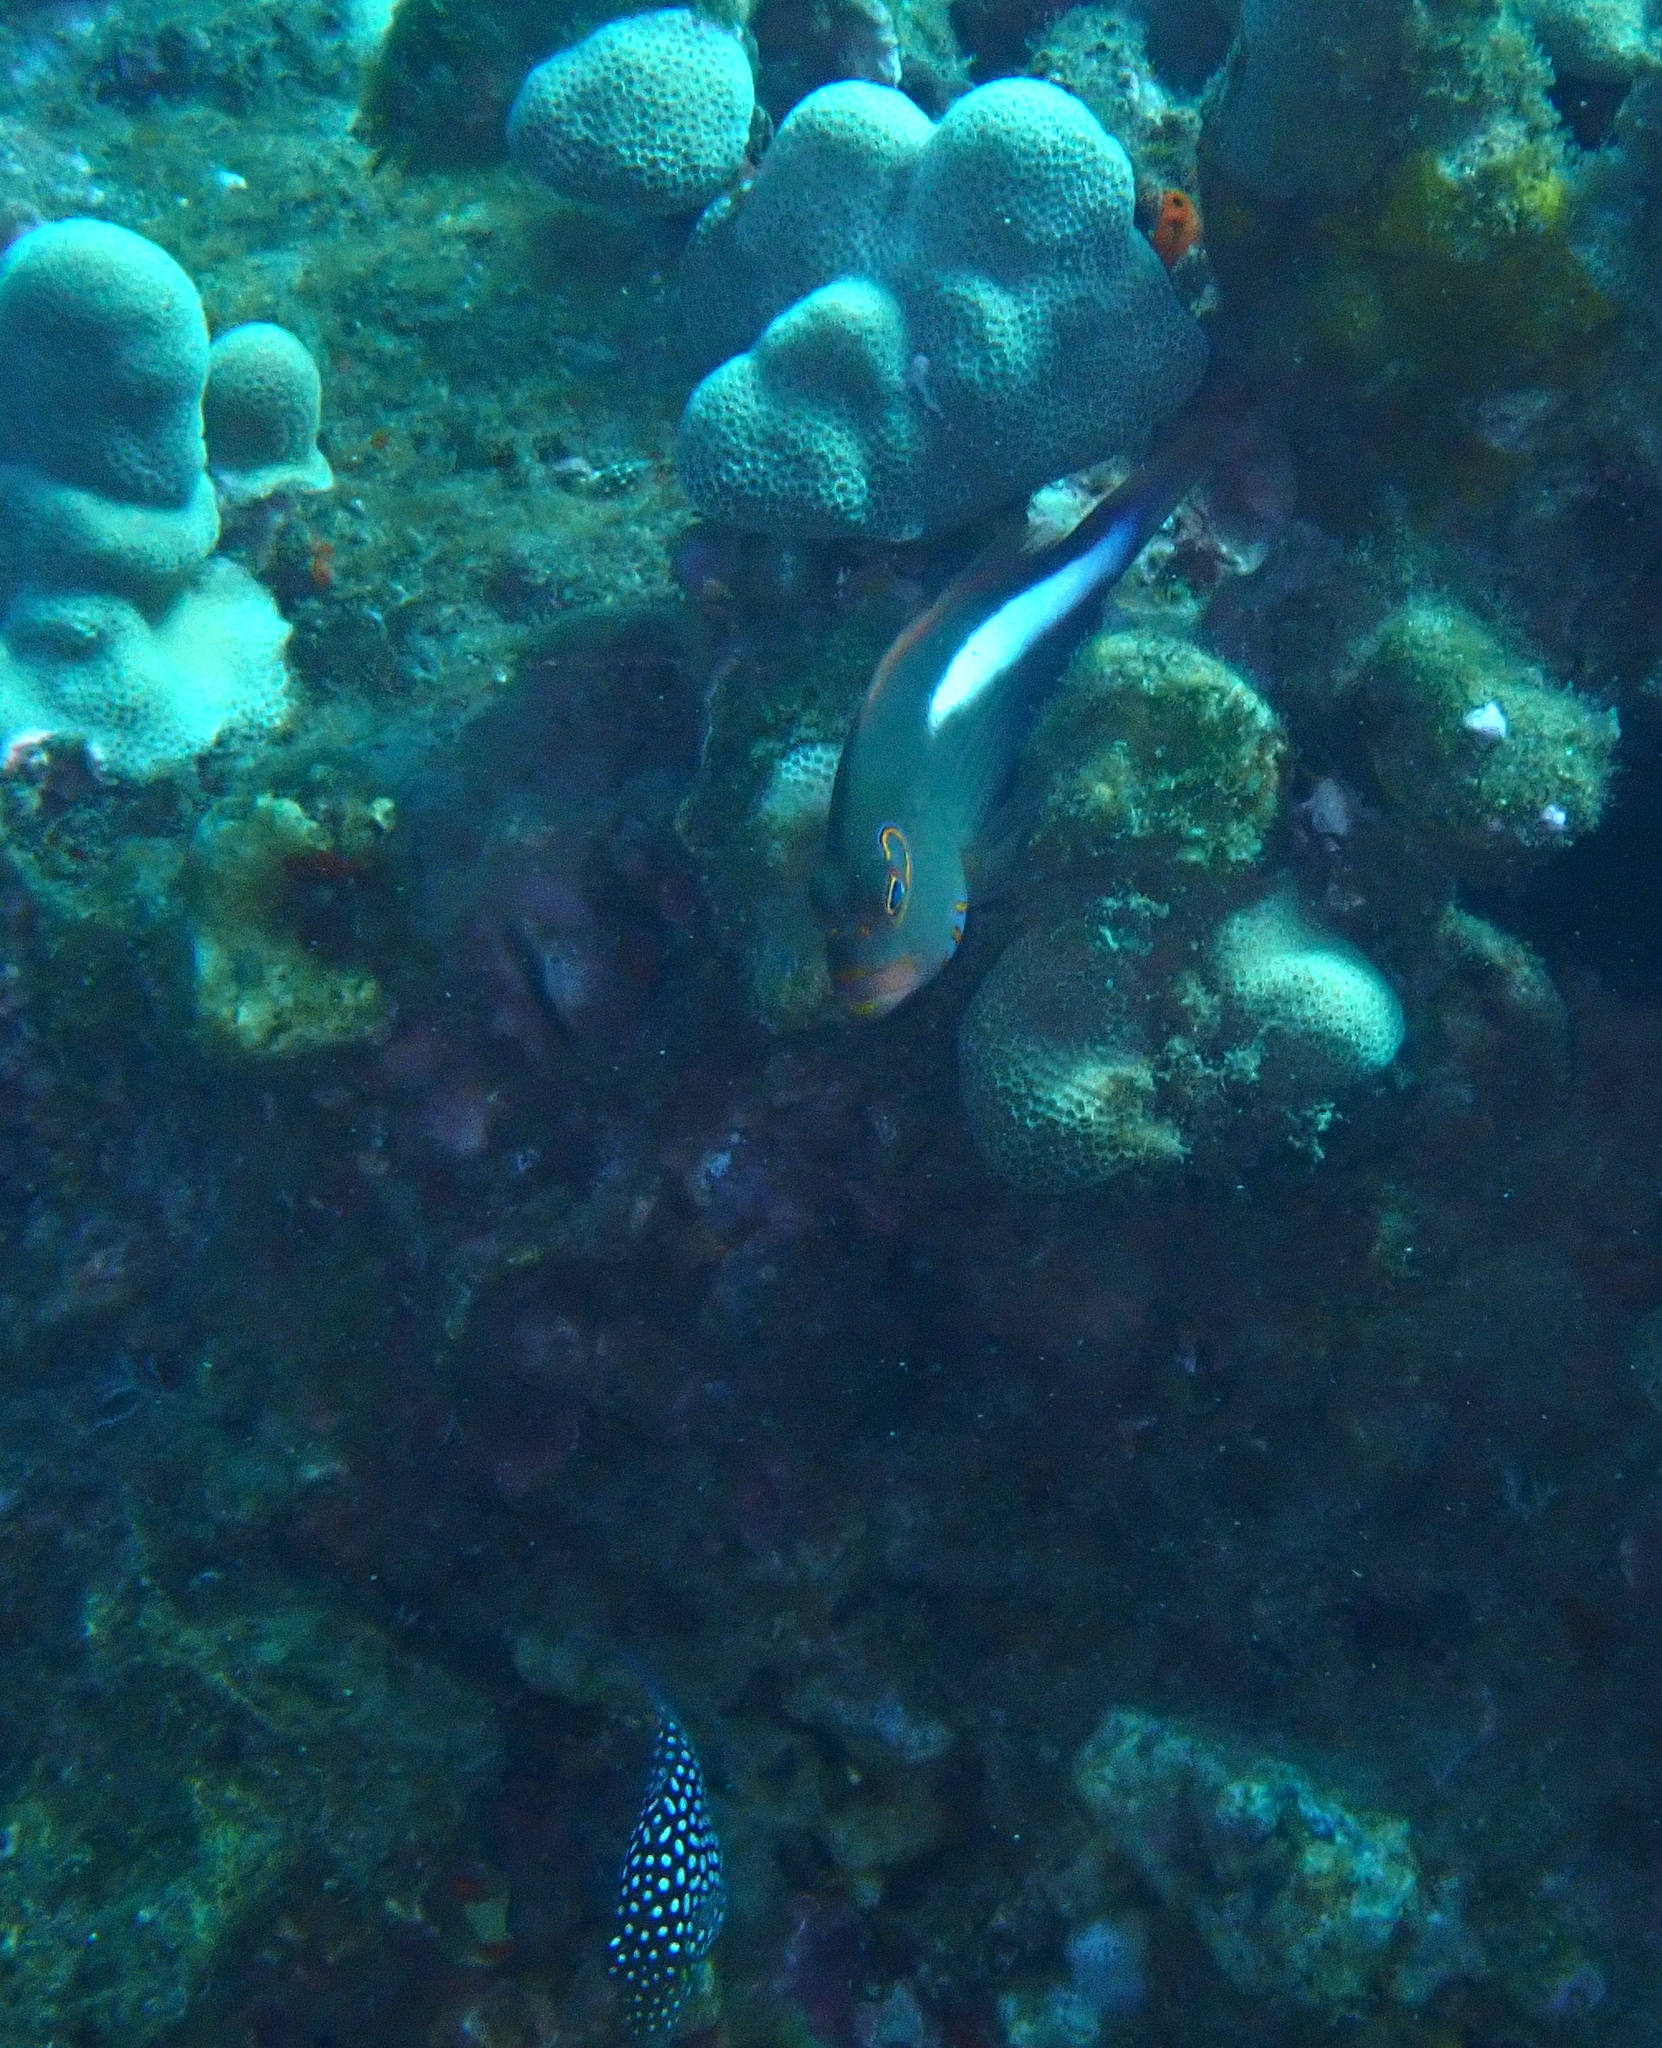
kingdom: Animalia
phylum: Chordata
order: Perciformes
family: Cirrhitidae
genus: Paracirrhites
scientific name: Paracirrhites arcatus
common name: Arc-eye hawkfish
